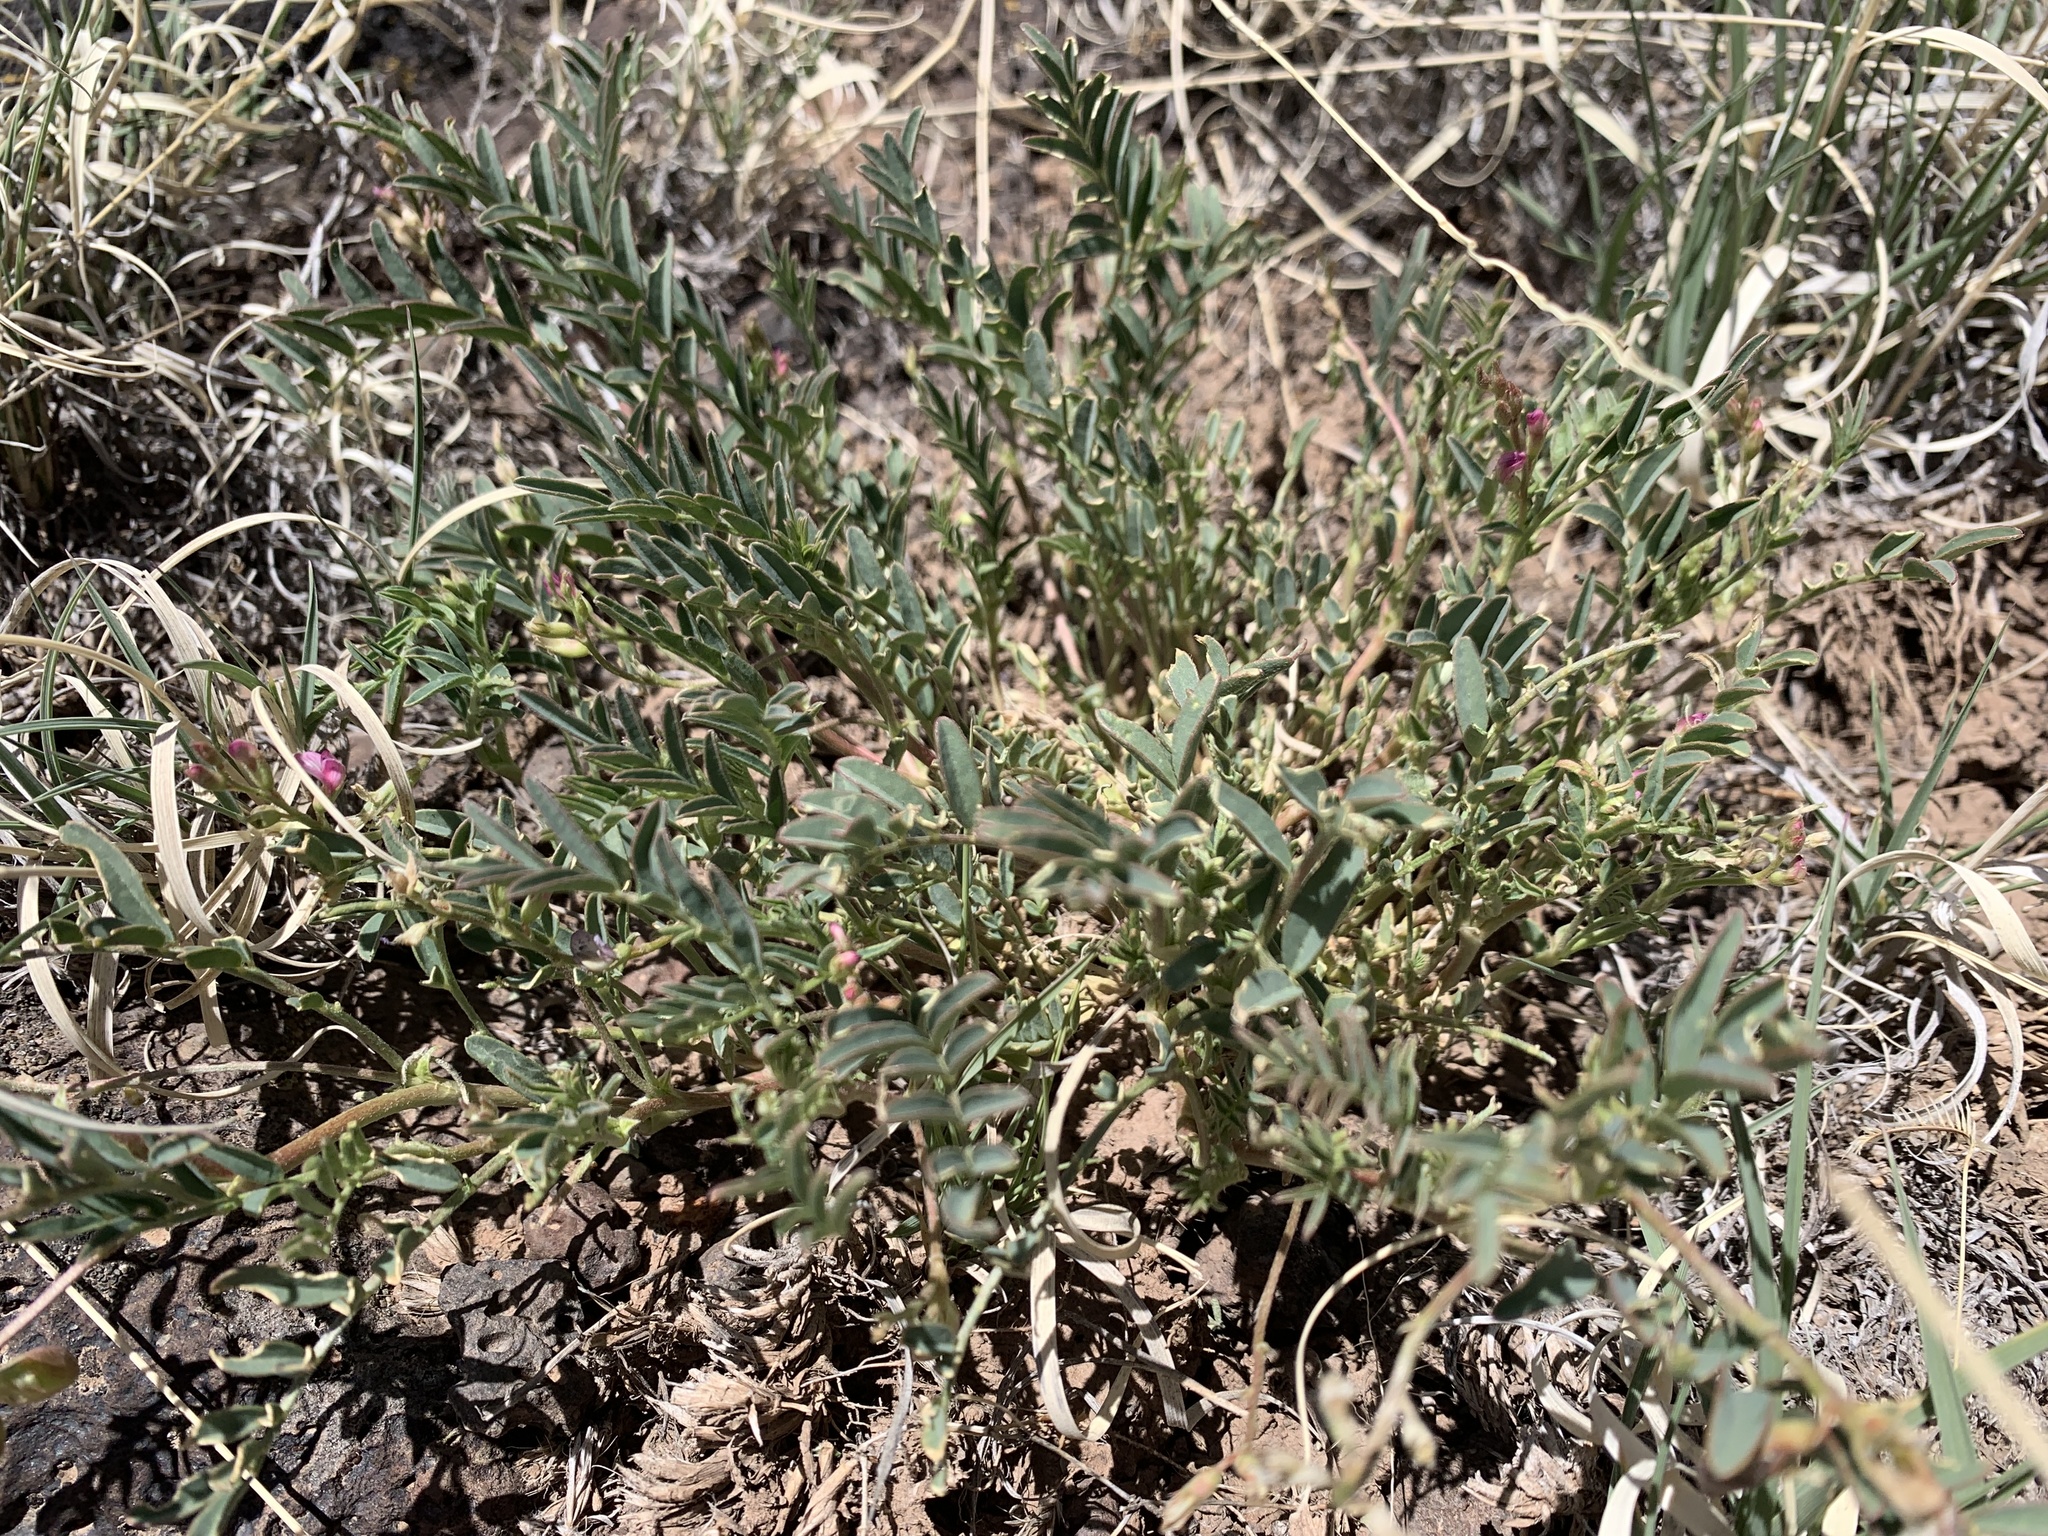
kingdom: Plantae
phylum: Tracheophyta
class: Magnoliopsida
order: Fabales
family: Fabaceae
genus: Astragalus
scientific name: Astragalus wootonii
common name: Wooton's milk-vetch
